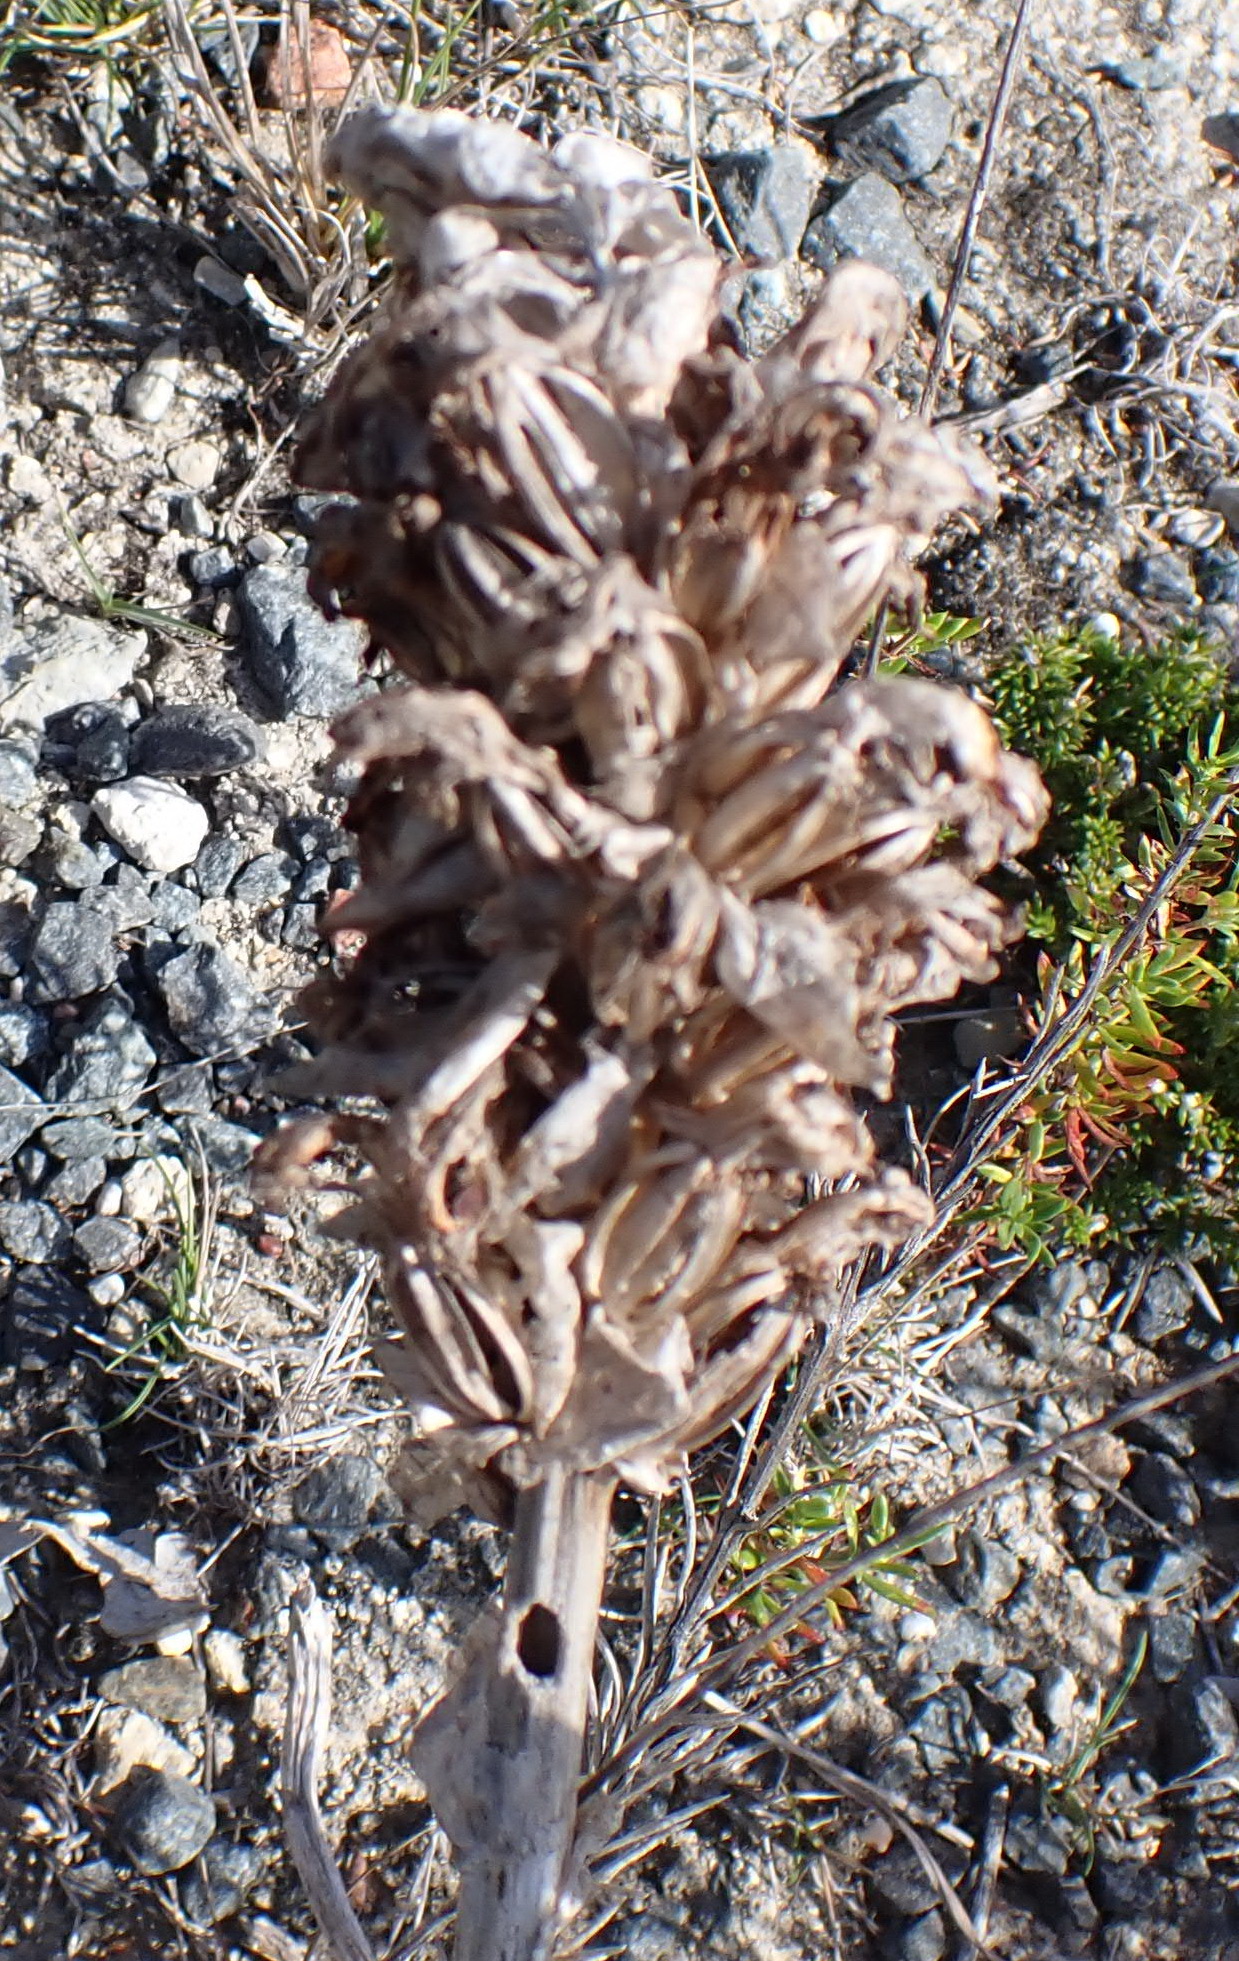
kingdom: Plantae
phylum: Tracheophyta
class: Liliopsida
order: Asparagales
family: Orchidaceae
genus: Satyrium
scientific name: Satyrium carneum
